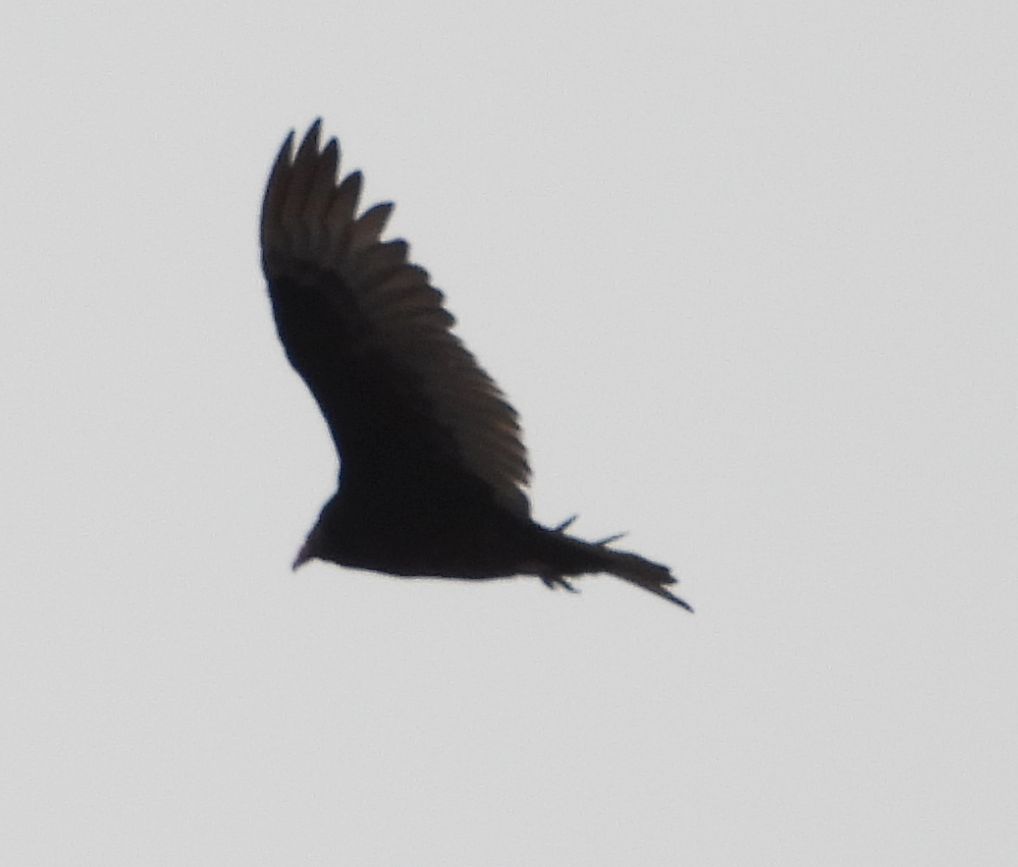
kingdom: Animalia
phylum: Chordata
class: Aves
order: Accipitriformes
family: Cathartidae
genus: Cathartes
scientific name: Cathartes aura
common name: Turkey vulture
